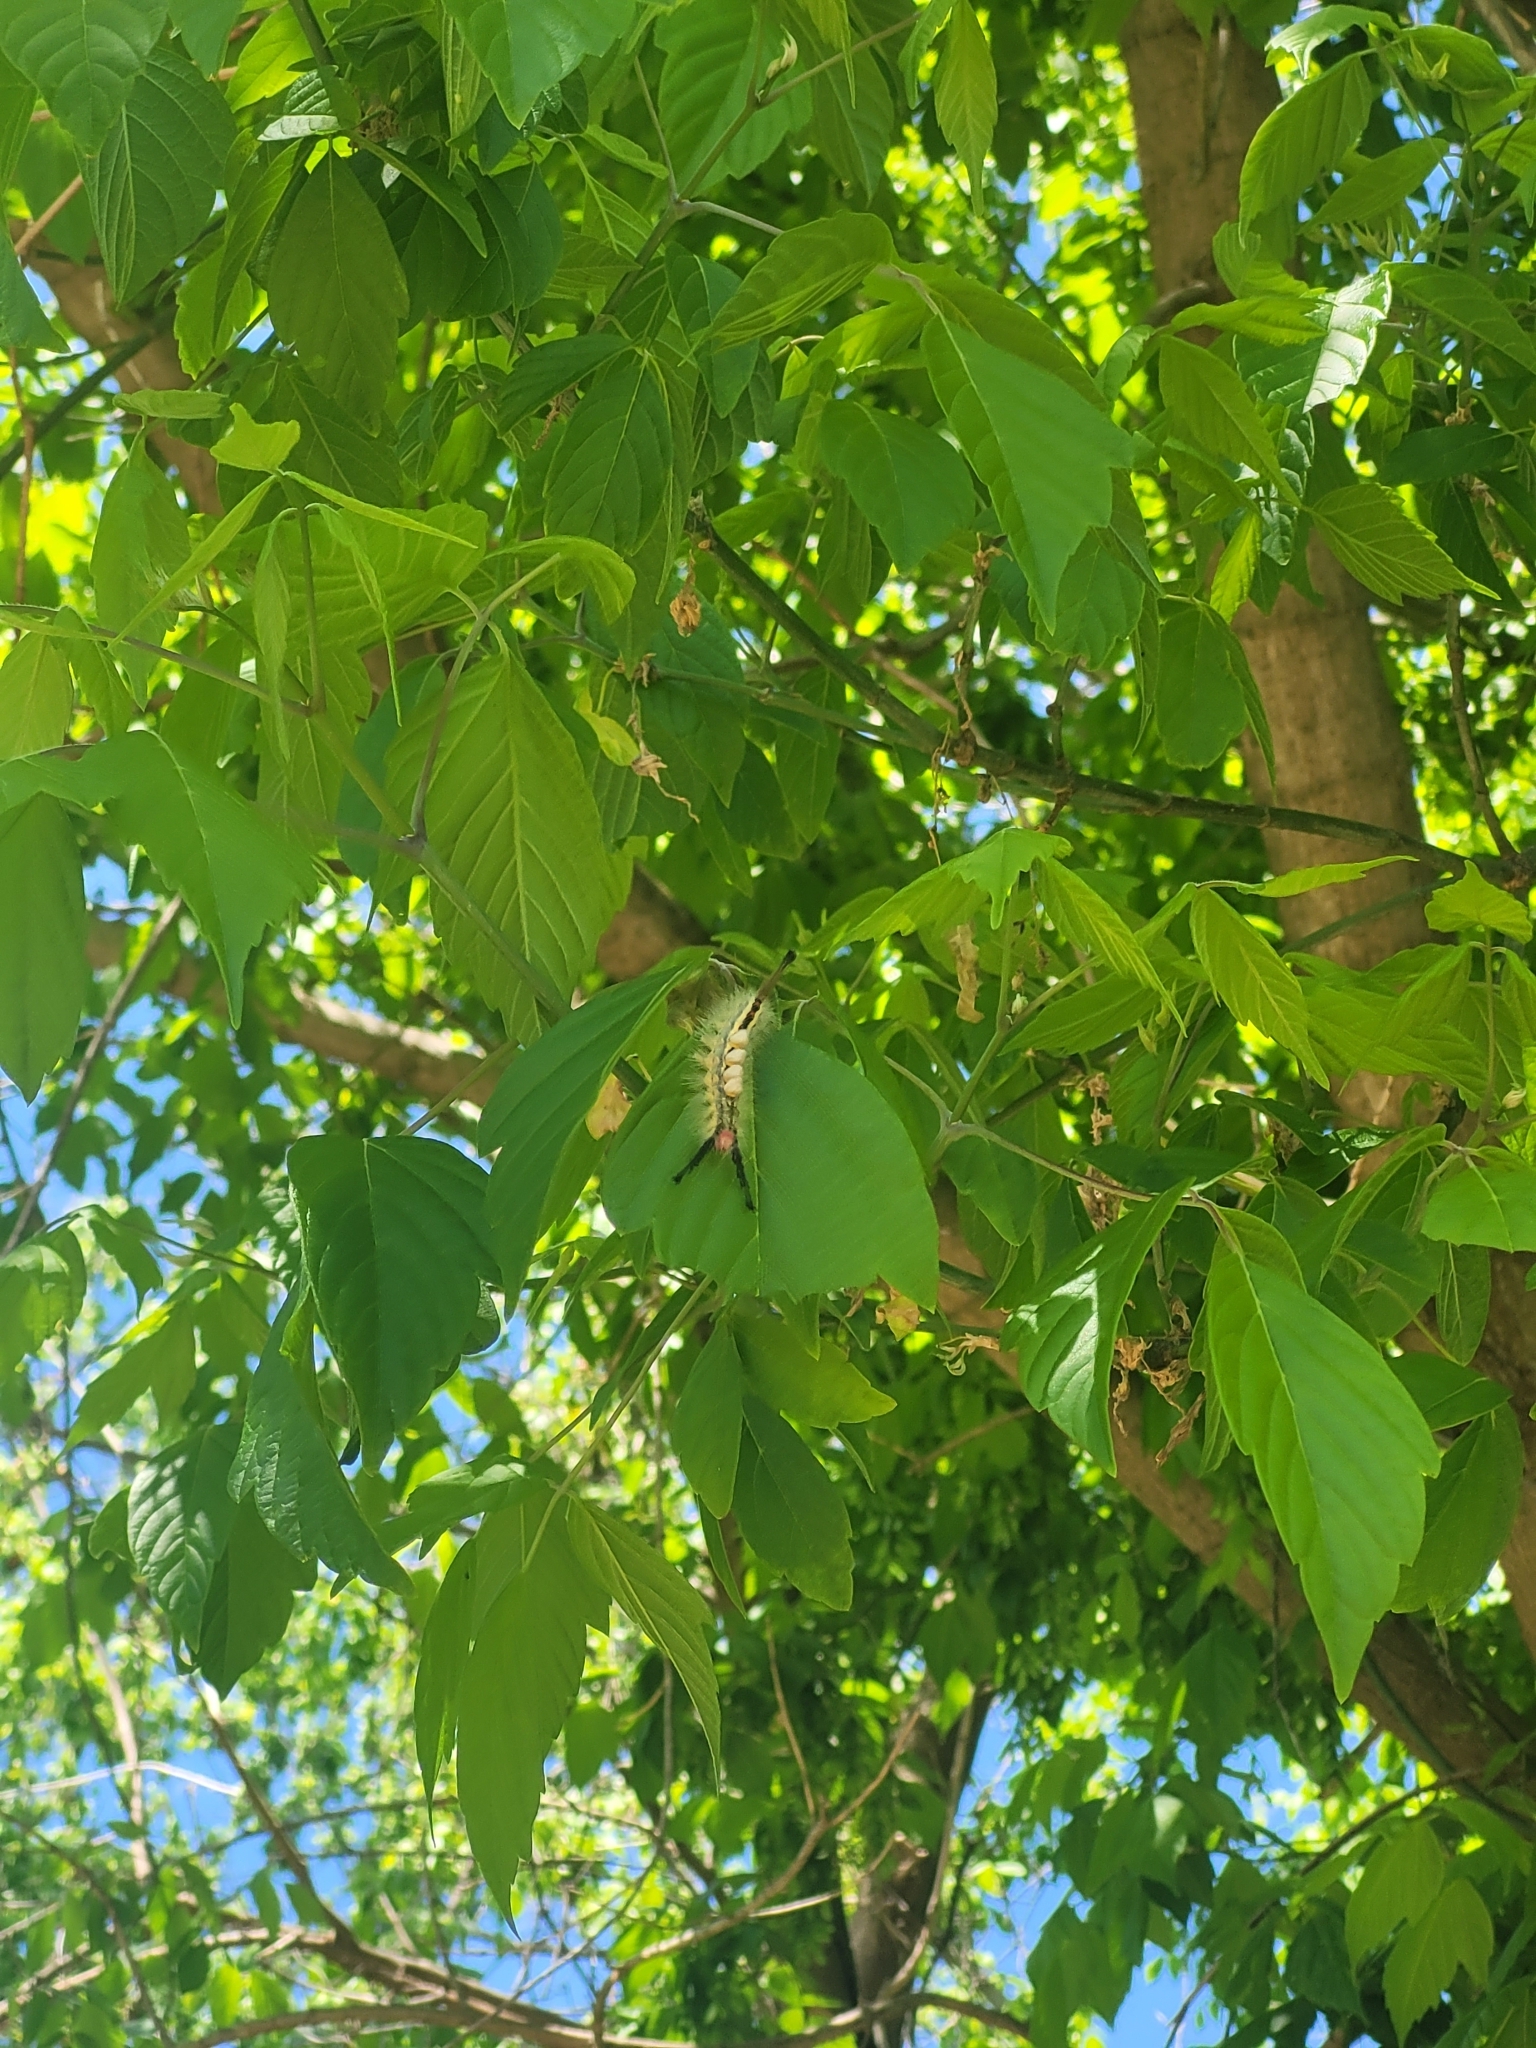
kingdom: Animalia
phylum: Arthropoda
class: Insecta
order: Lepidoptera
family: Erebidae
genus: Orgyia
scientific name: Orgyia leucostigma
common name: White-marked tussock moth
